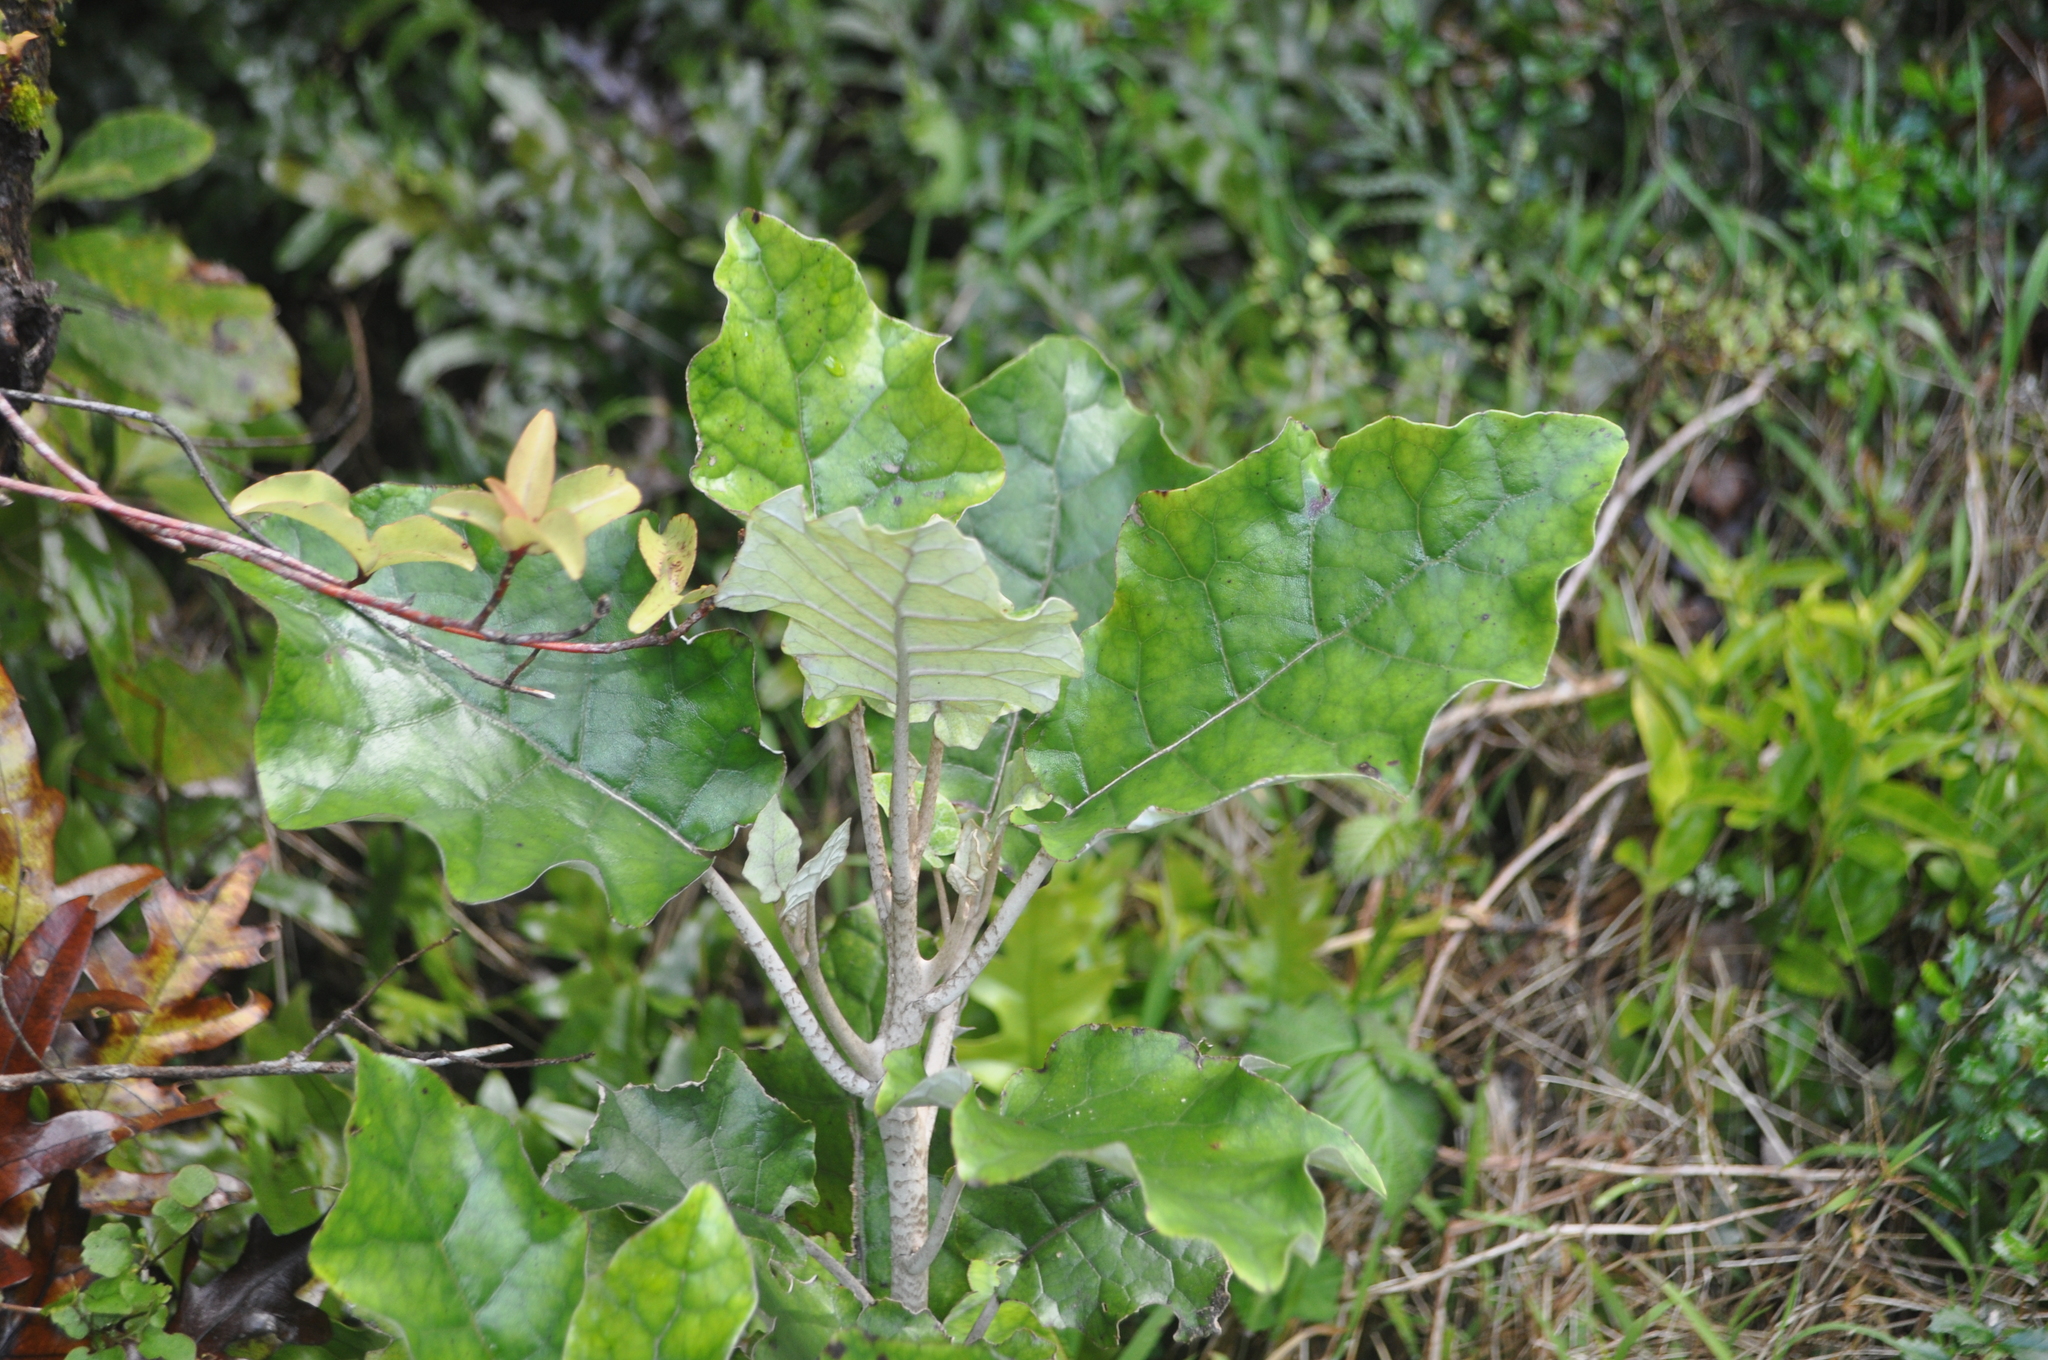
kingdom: Plantae
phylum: Tracheophyta
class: Magnoliopsida
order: Asterales
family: Asteraceae
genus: Brachyglottis
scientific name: Brachyglottis repanda
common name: Hedge ragwort
